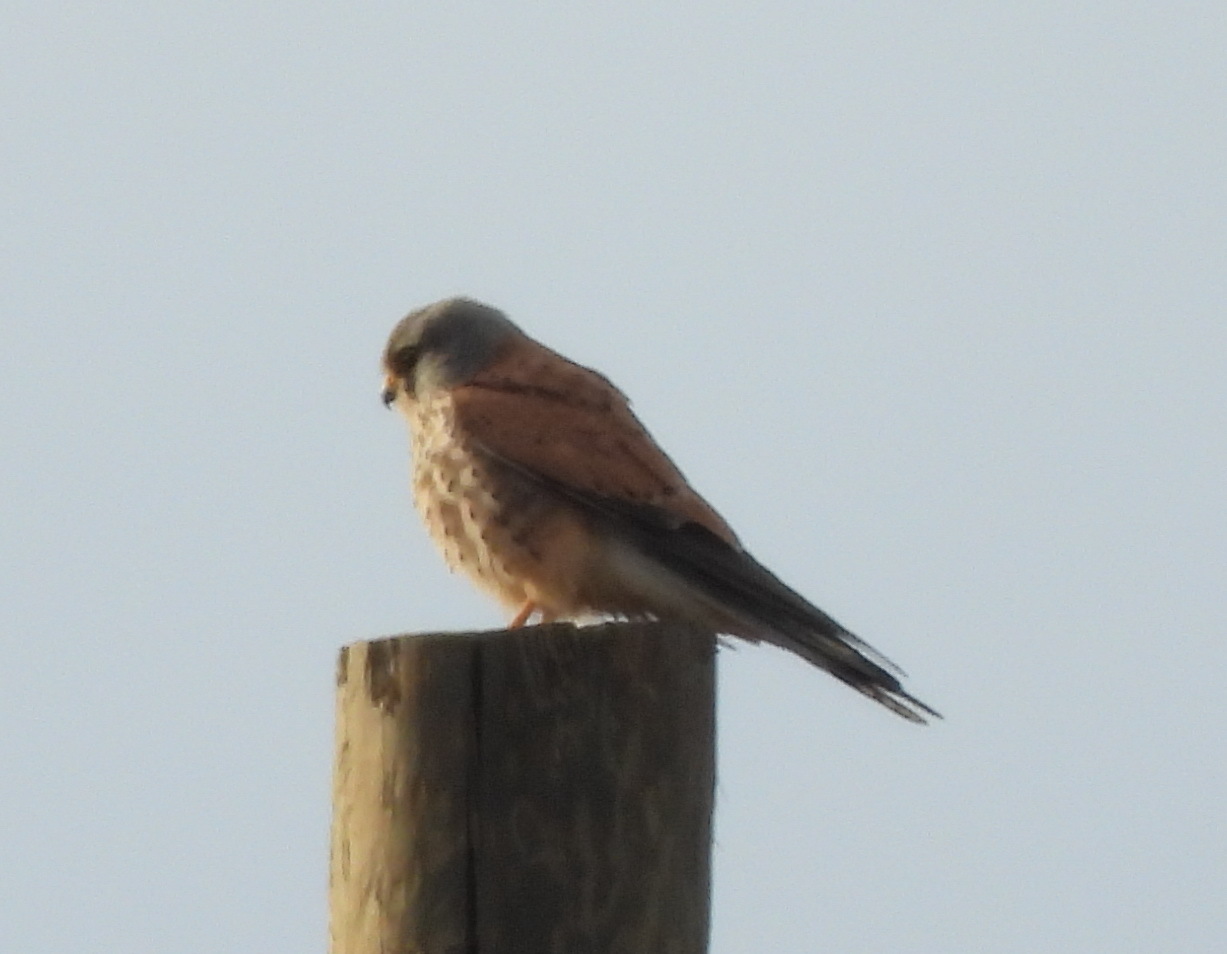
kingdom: Animalia
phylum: Chordata
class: Aves
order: Falconiformes
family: Falconidae
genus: Falco
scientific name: Falco tinnunculus
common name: Common kestrel
